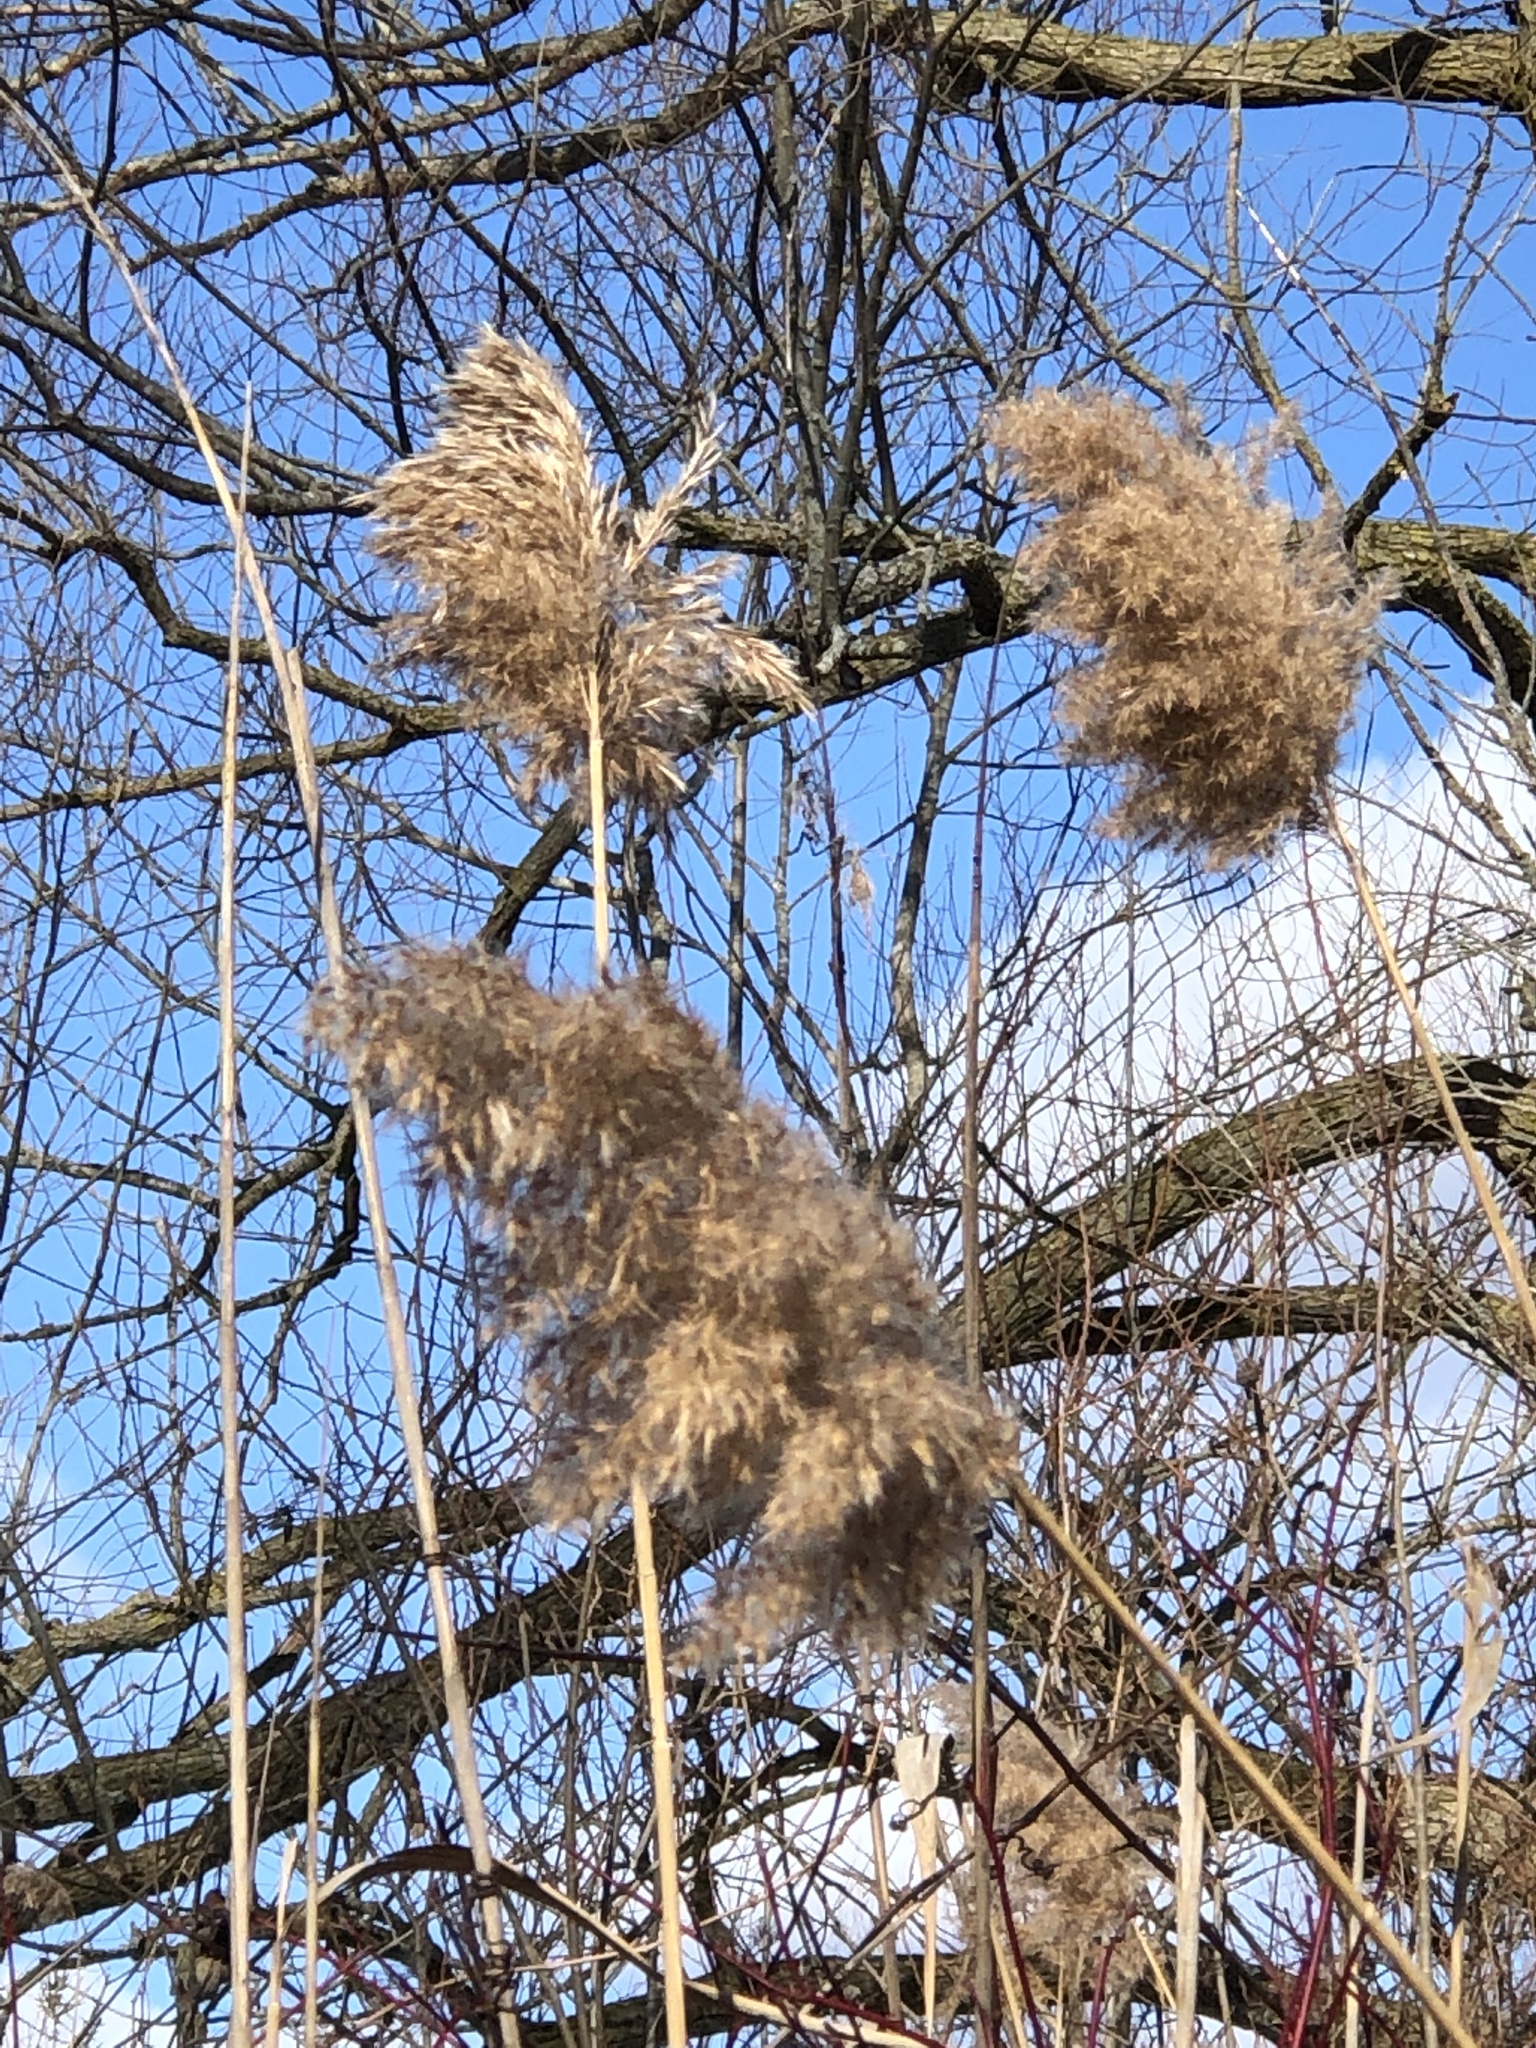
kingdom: Plantae
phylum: Tracheophyta
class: Liliopsida
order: Poales
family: Poaceae
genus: Phragmites
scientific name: Phragmites australis
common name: Common reed
